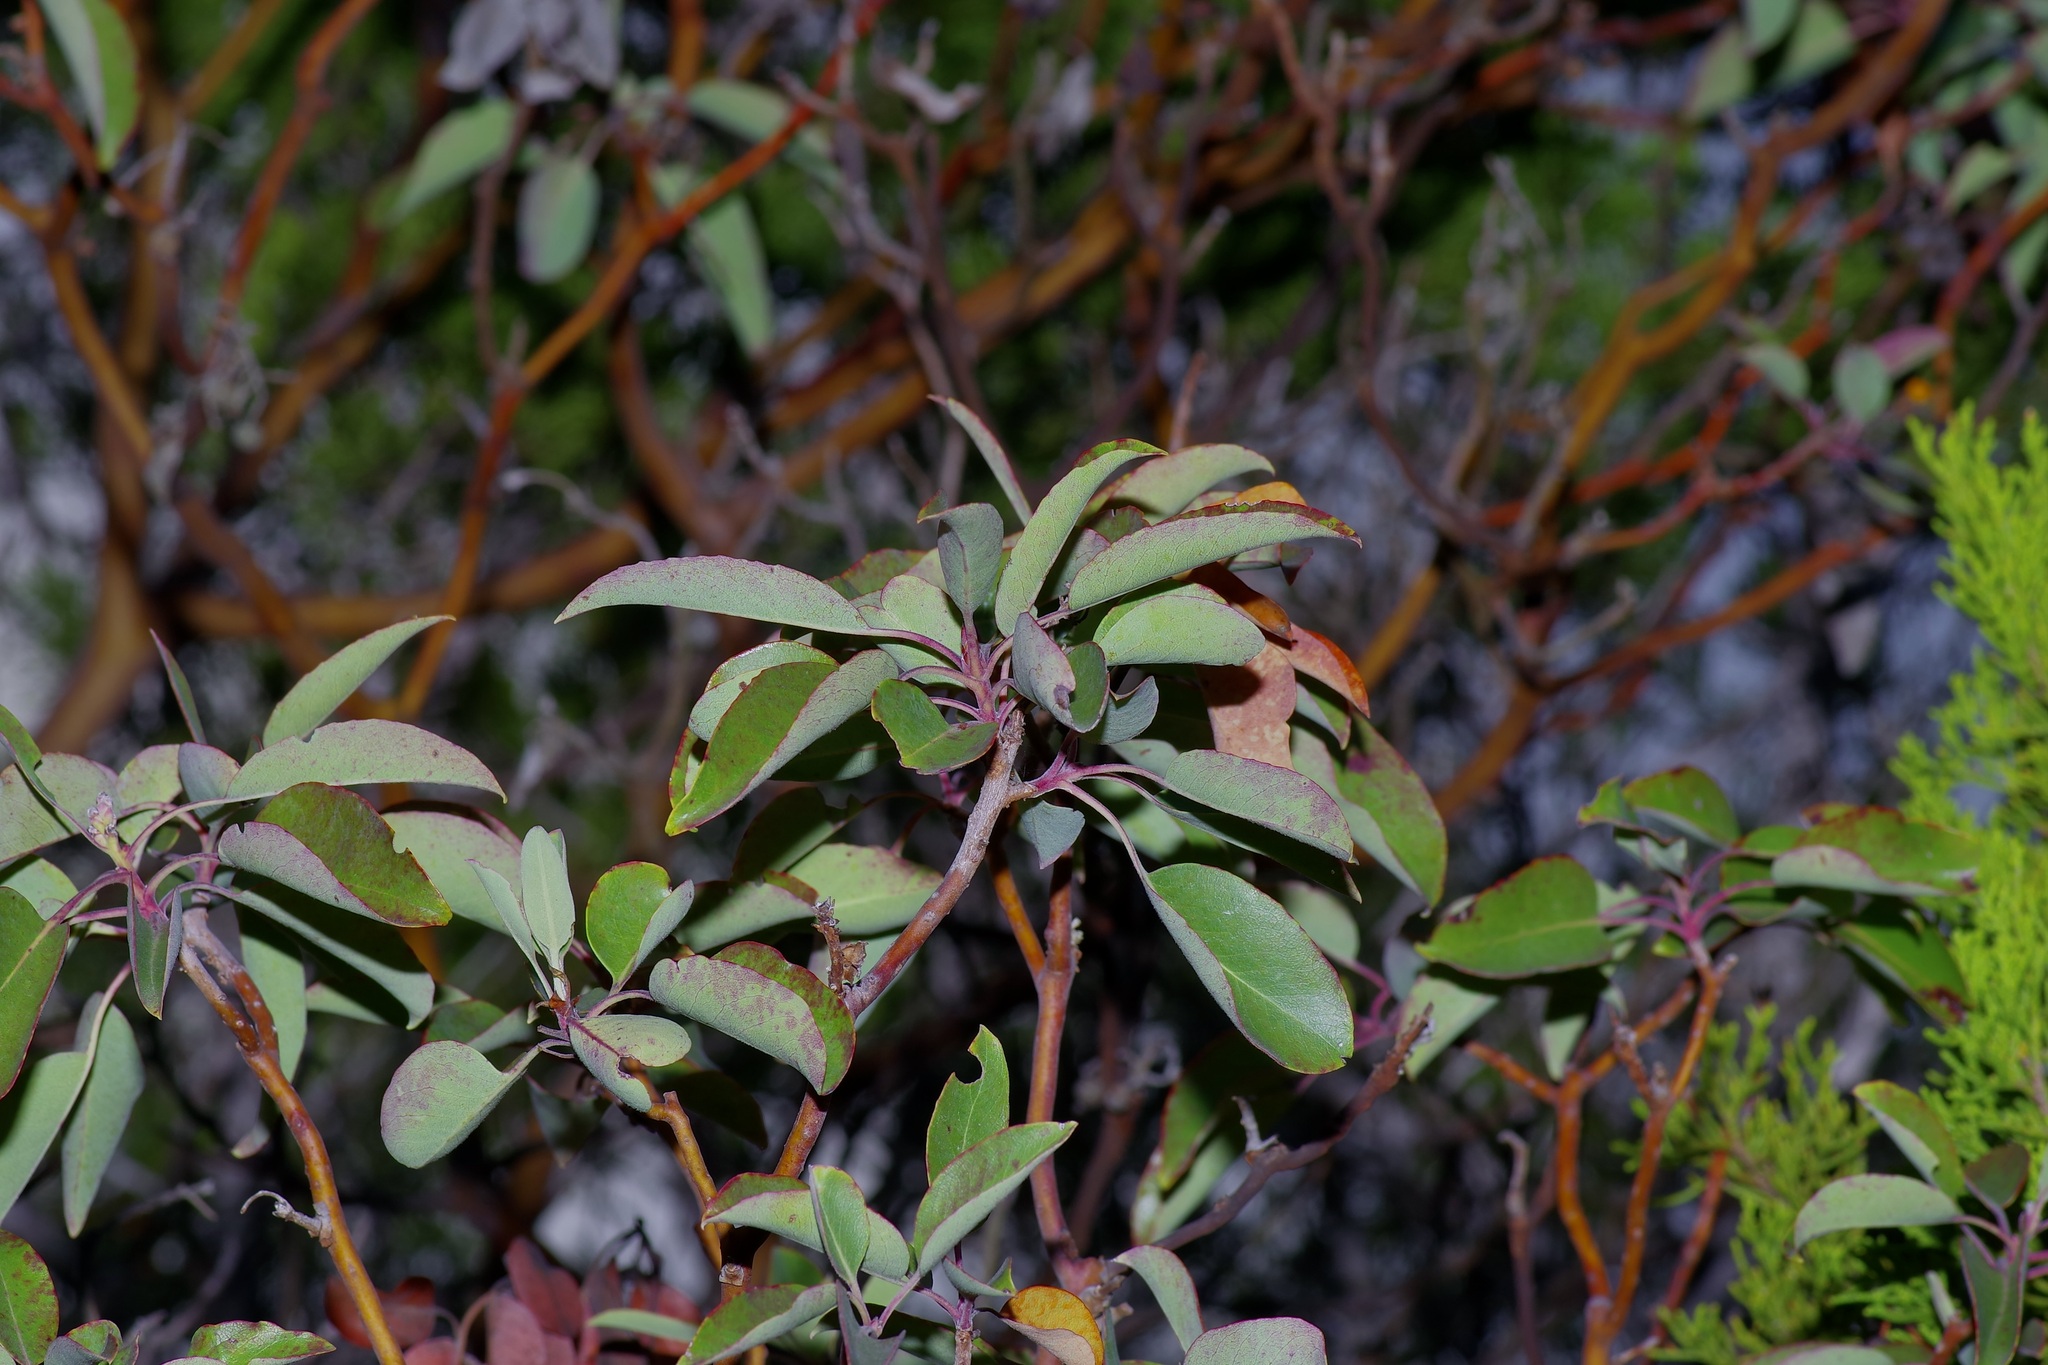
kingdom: Plantae
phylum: Tracheophyta
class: Magnoliopsida
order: Ericales
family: Ericaceae
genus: Arbutus
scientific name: Arbutus xalapensis
